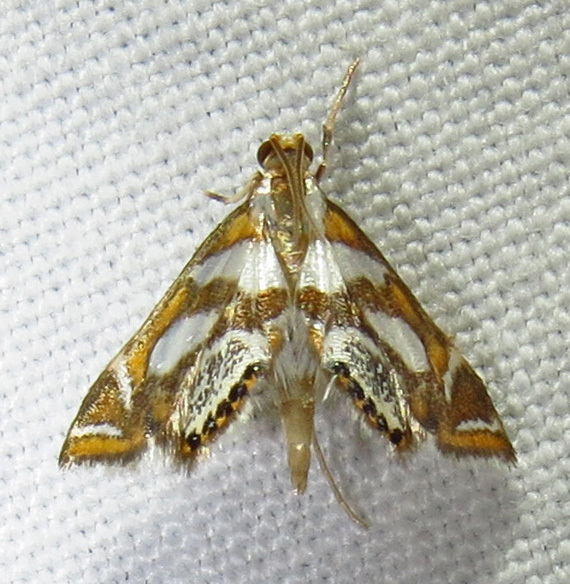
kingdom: Animalia
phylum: Arthropoda
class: Insecta
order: Lepidoptera
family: Crambidae
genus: Chrysendeton
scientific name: Chrysendeton medicinalis
